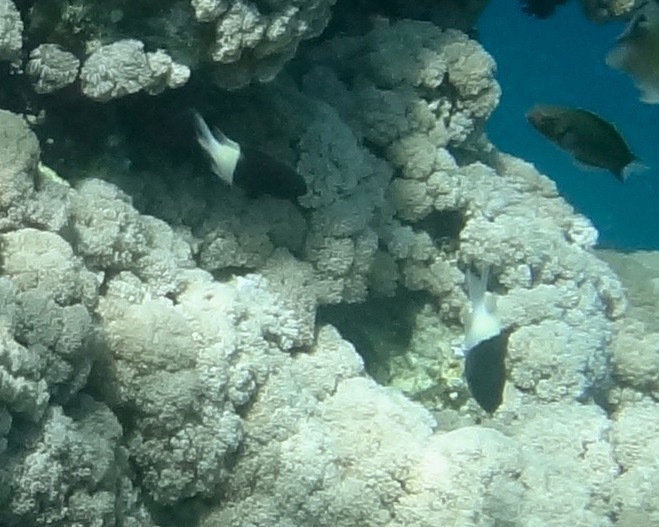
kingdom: Animalia
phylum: Chordata
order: Perciformes
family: Pomacentridae
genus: Chromis
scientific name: Chromis dimidiata
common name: Half-and-half chromis
